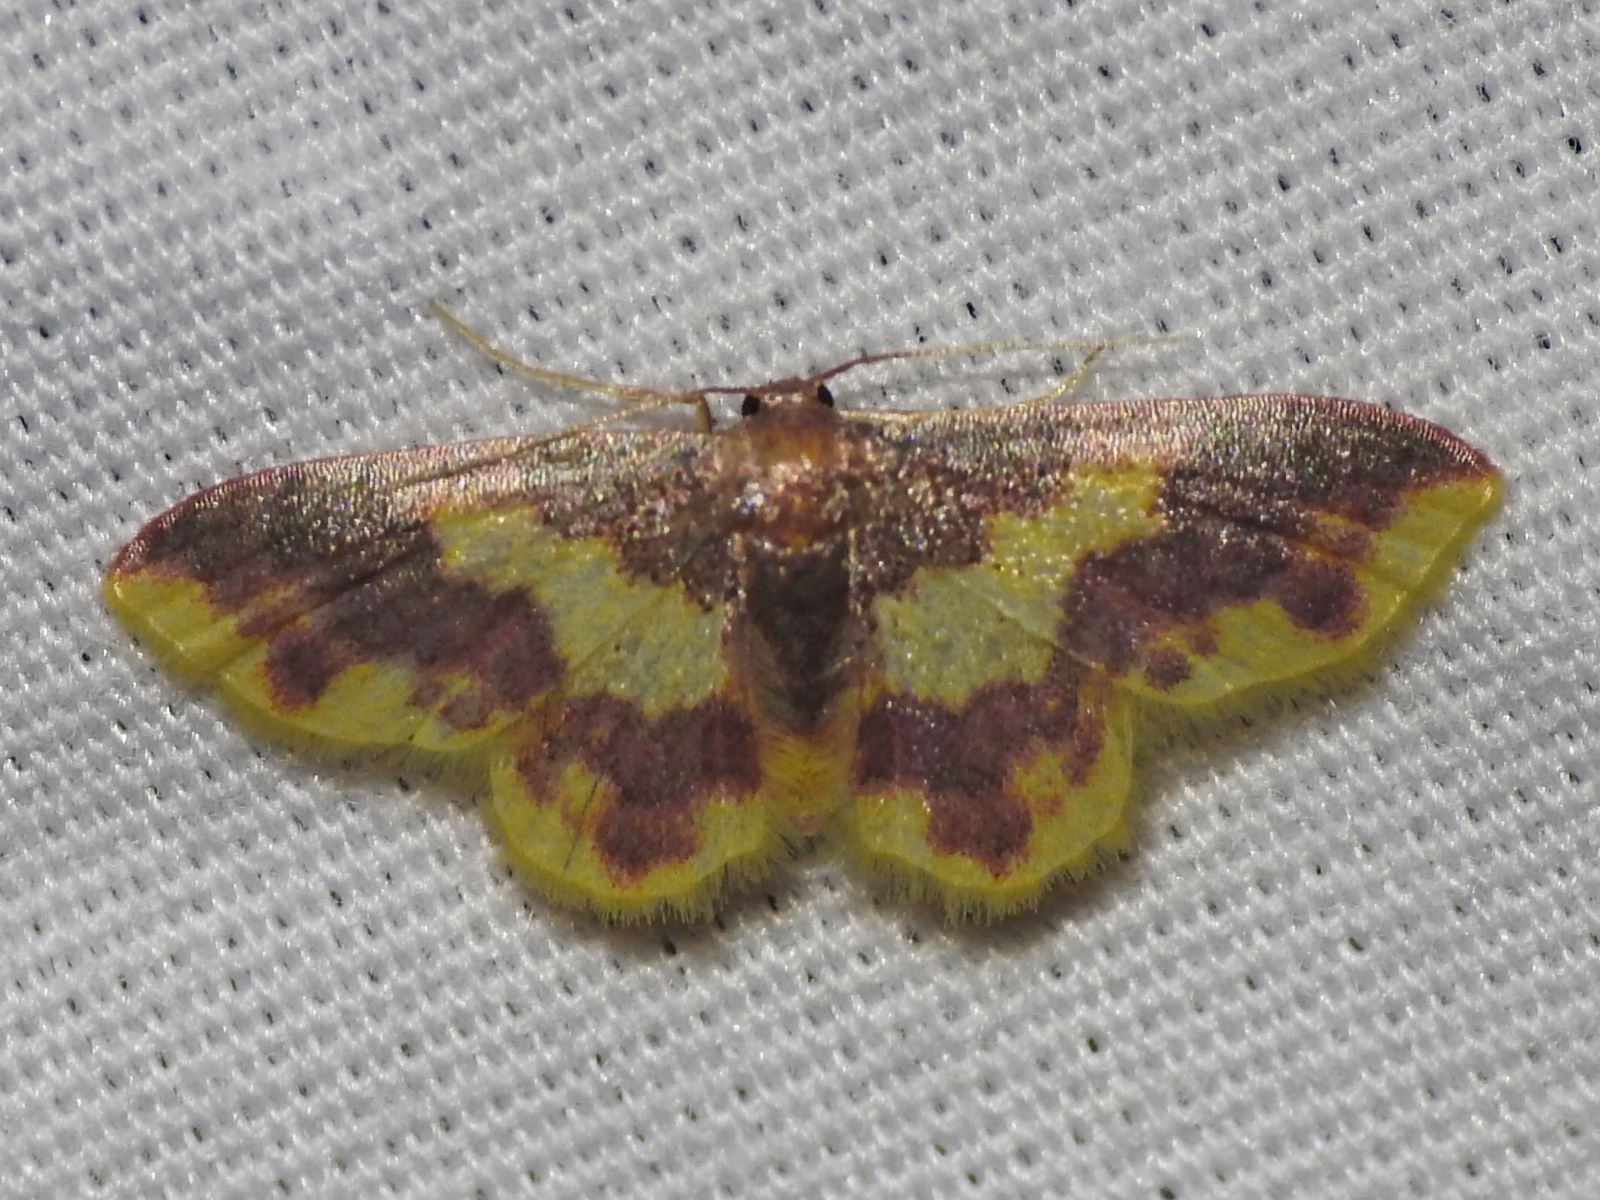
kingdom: Animalia
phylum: Arthropoda
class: Insecta
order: Lepidoptera
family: Geometridae
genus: Lophosis
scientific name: Lophosis labeculata
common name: Stained lophosis moth
